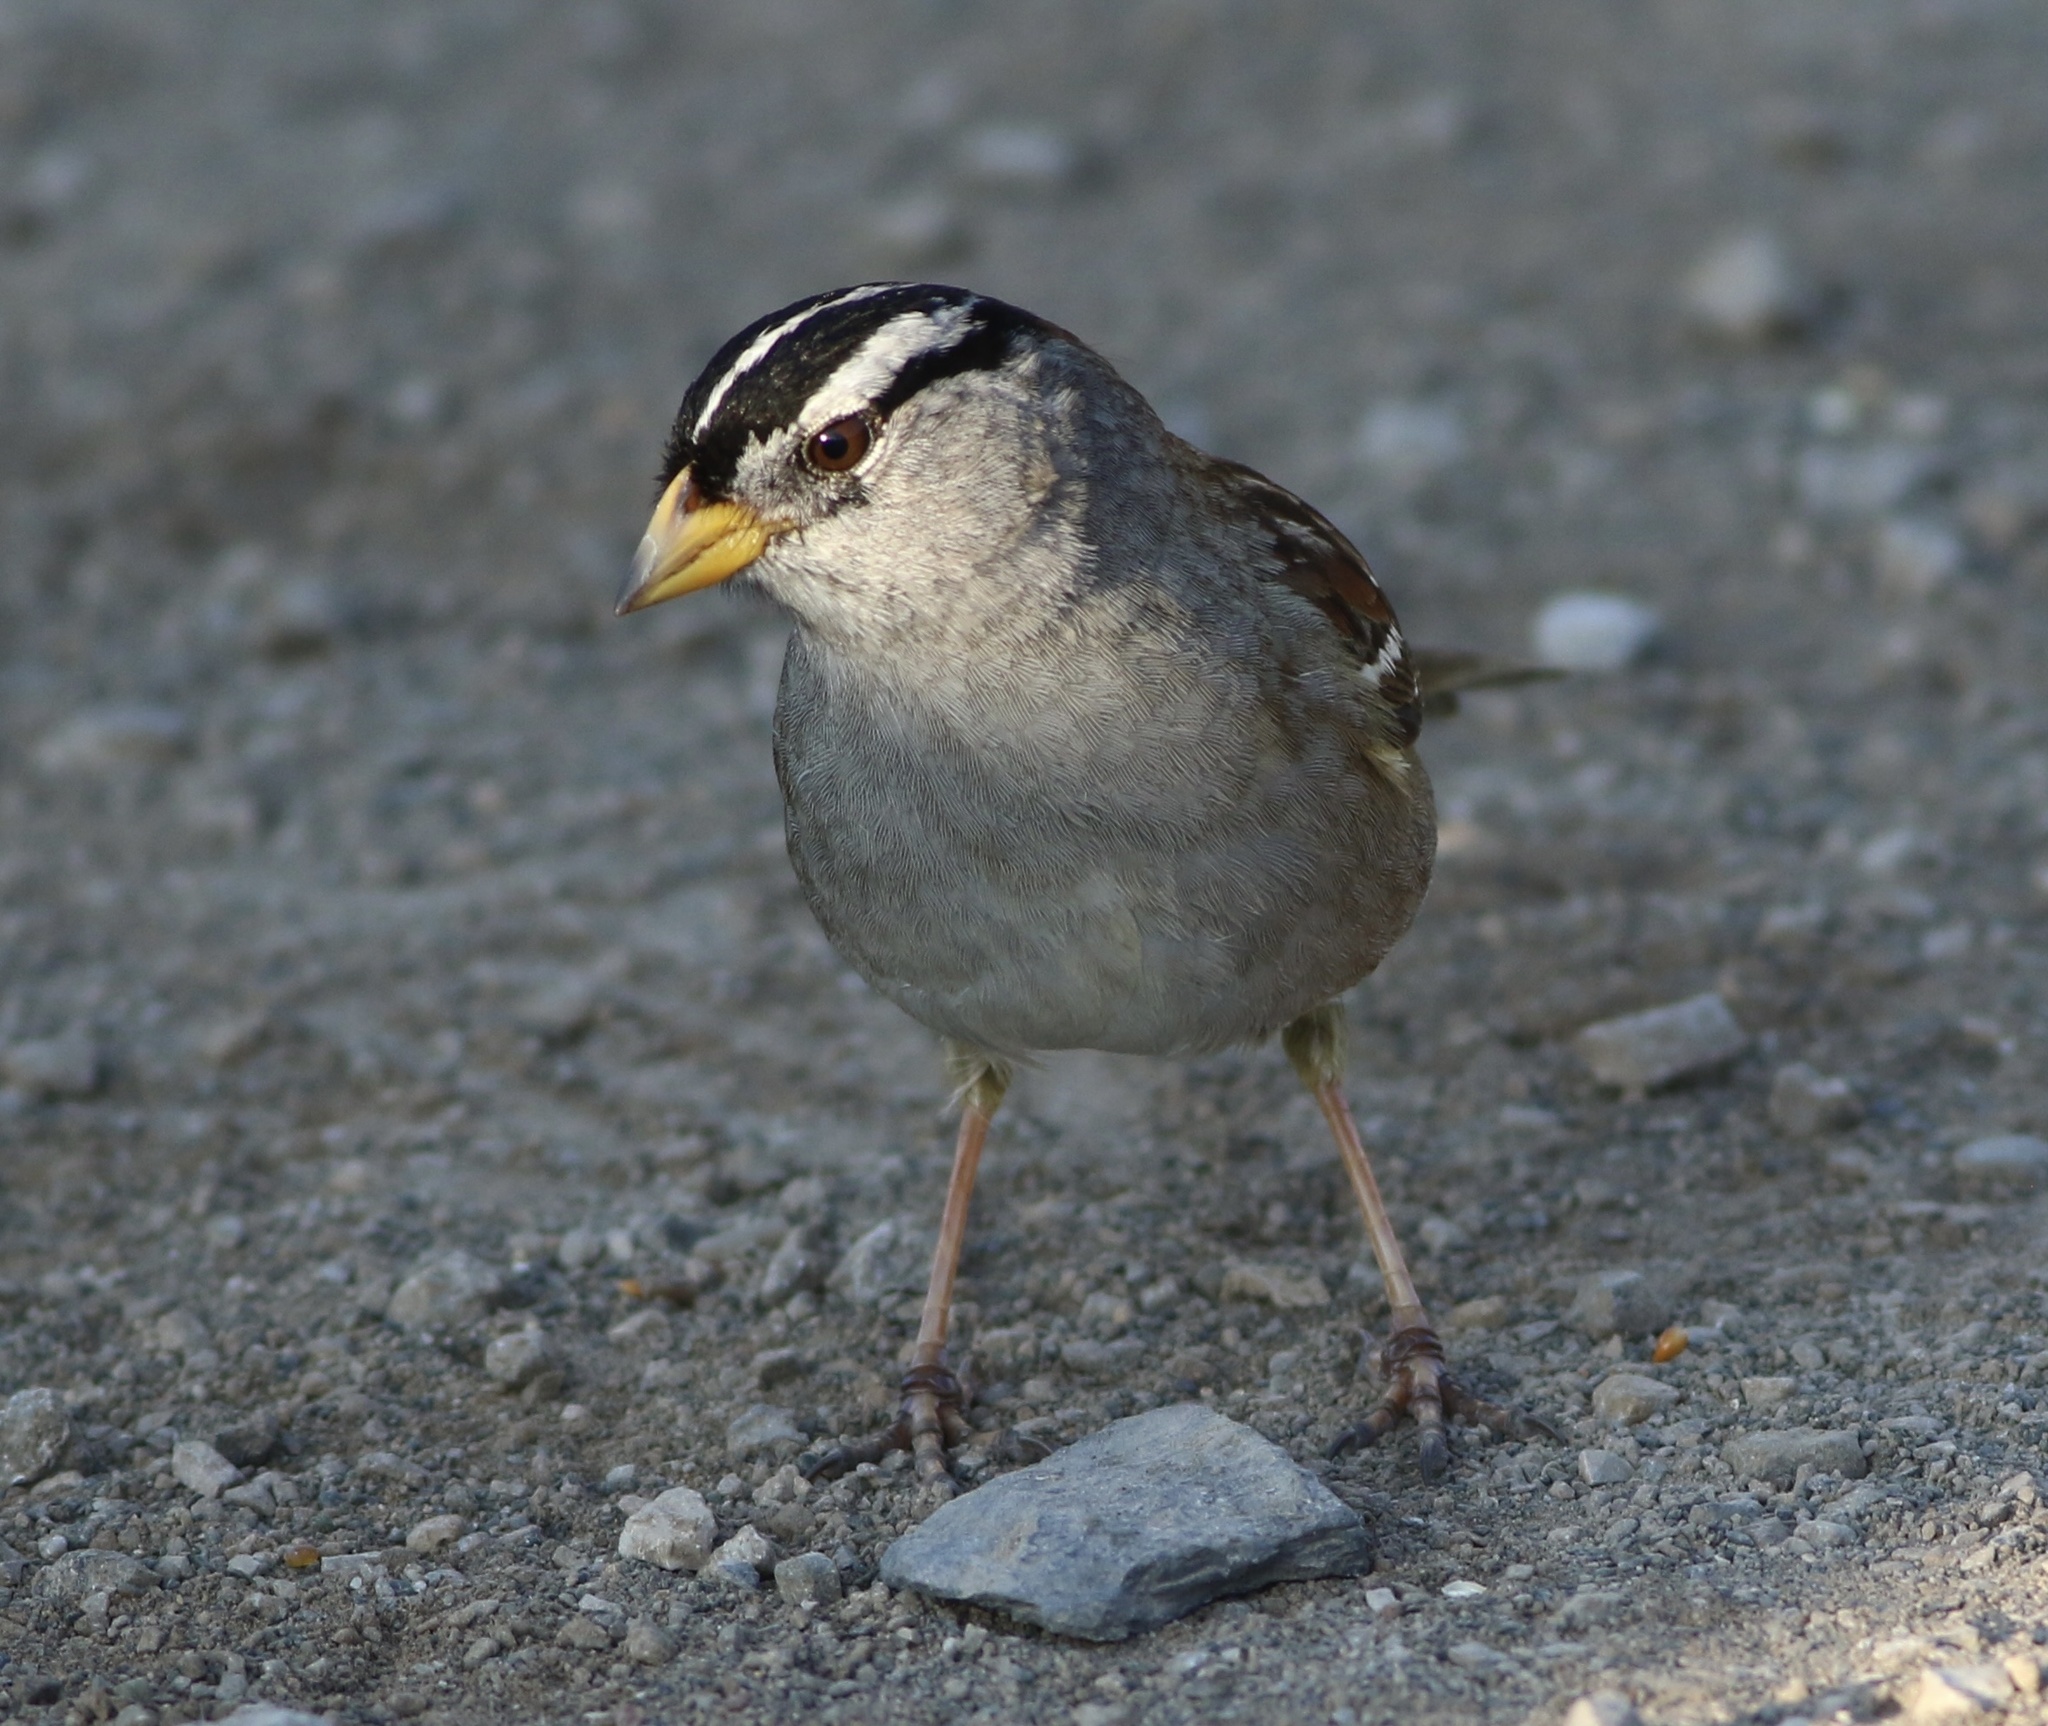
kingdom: Animalia
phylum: Chordata
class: Aves
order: Passeriformes
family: Passerellidae
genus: Zonotrichia
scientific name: Zonotrichia leucophrys
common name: White-crowned sparrow
